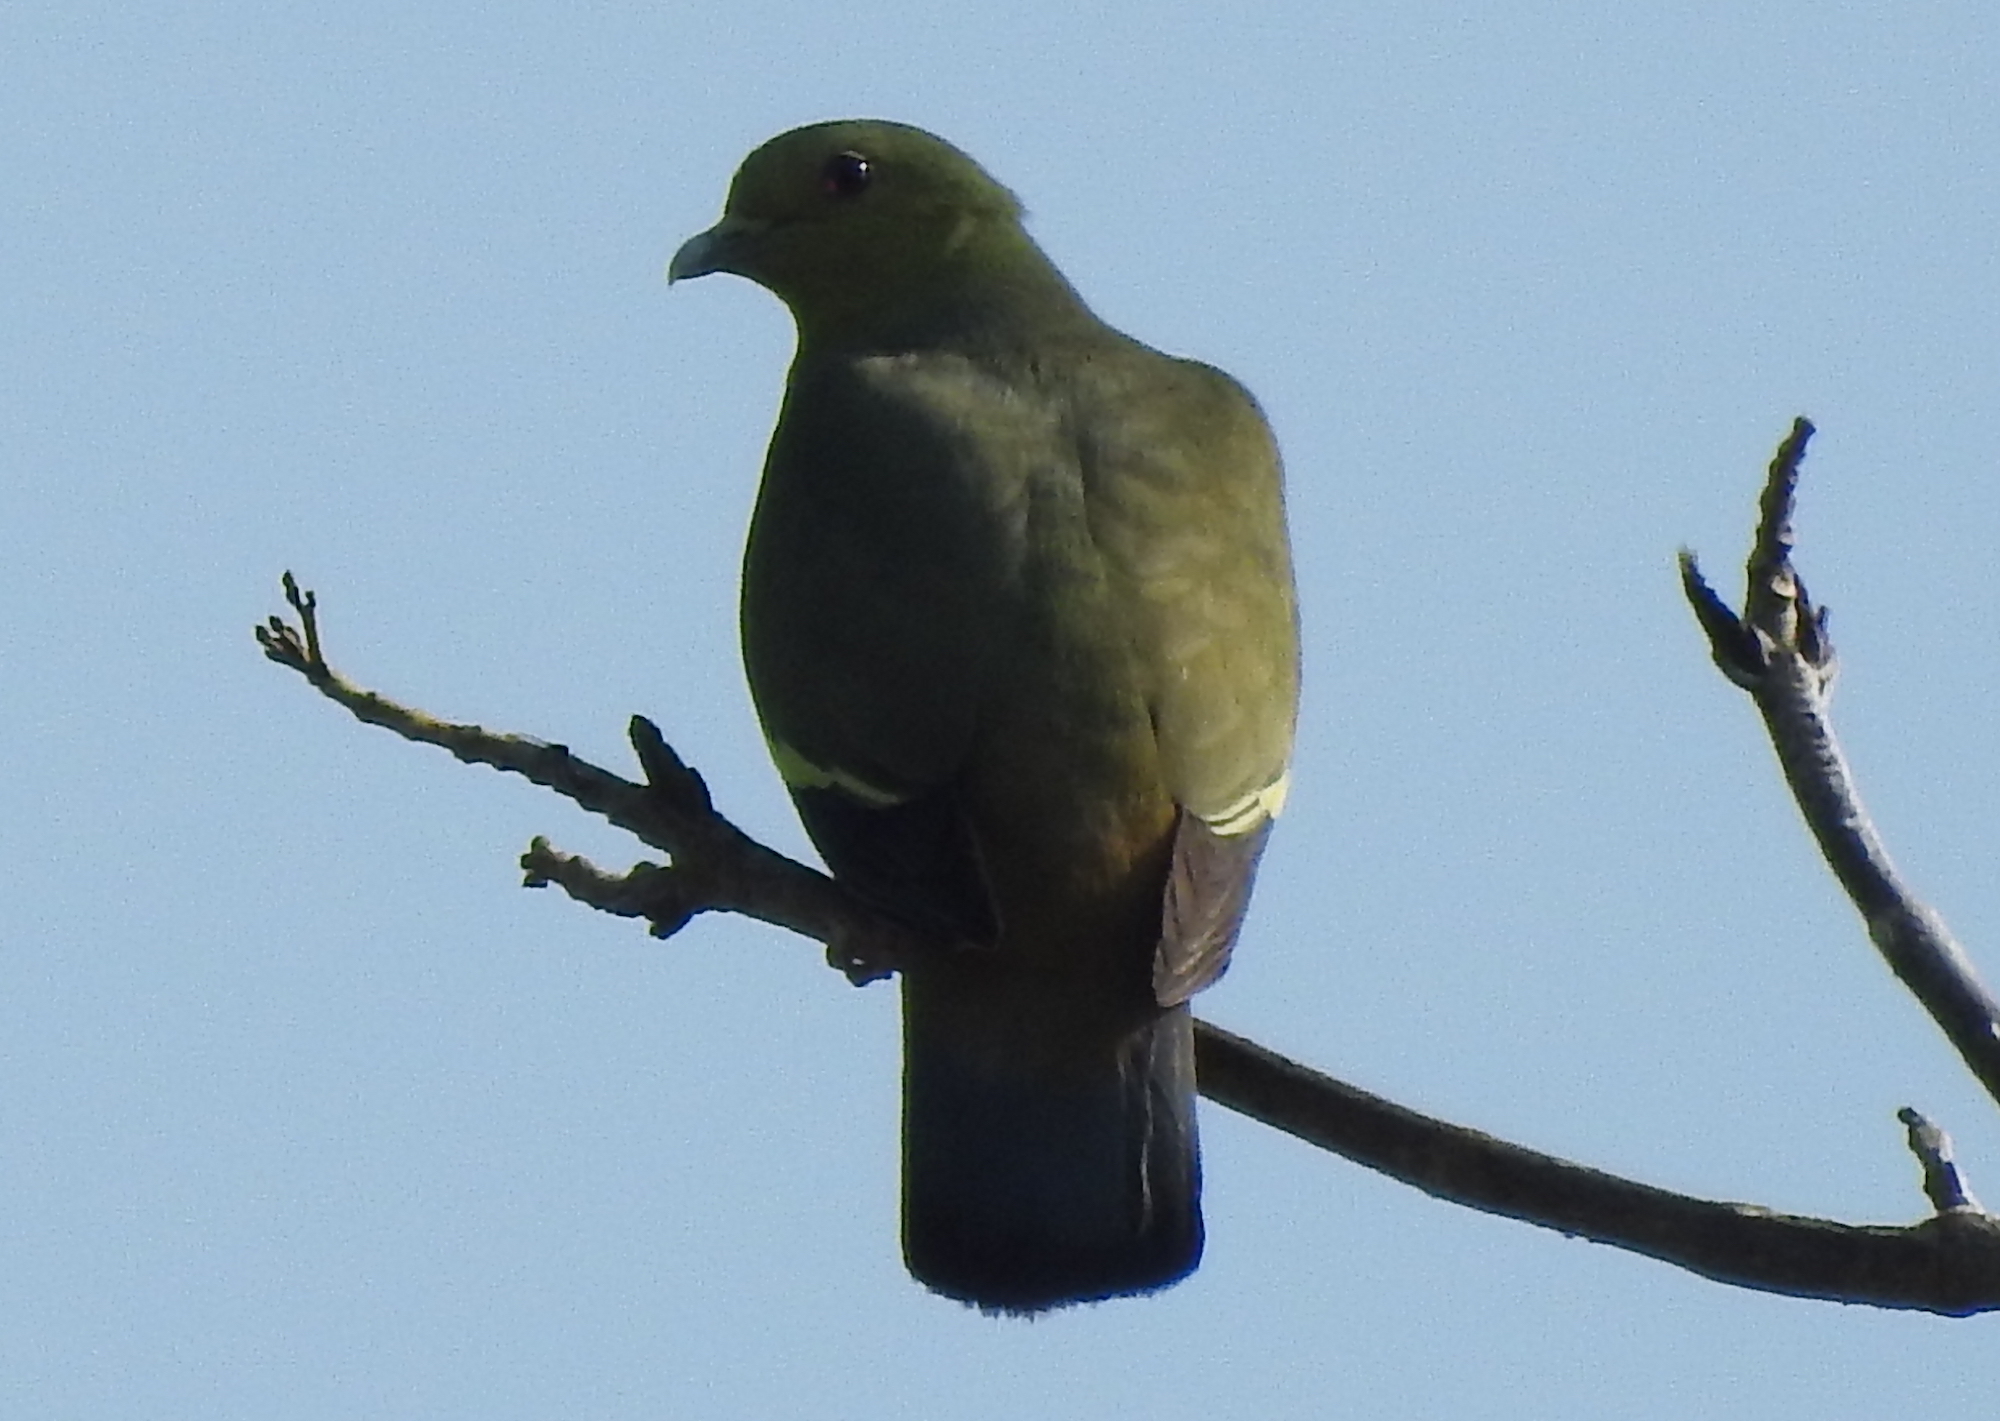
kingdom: Animalia
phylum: Chordata
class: Aves
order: Columbiformes
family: Columbidae
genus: Treron
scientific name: Treron vernans
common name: Pink-necked green pigeon
